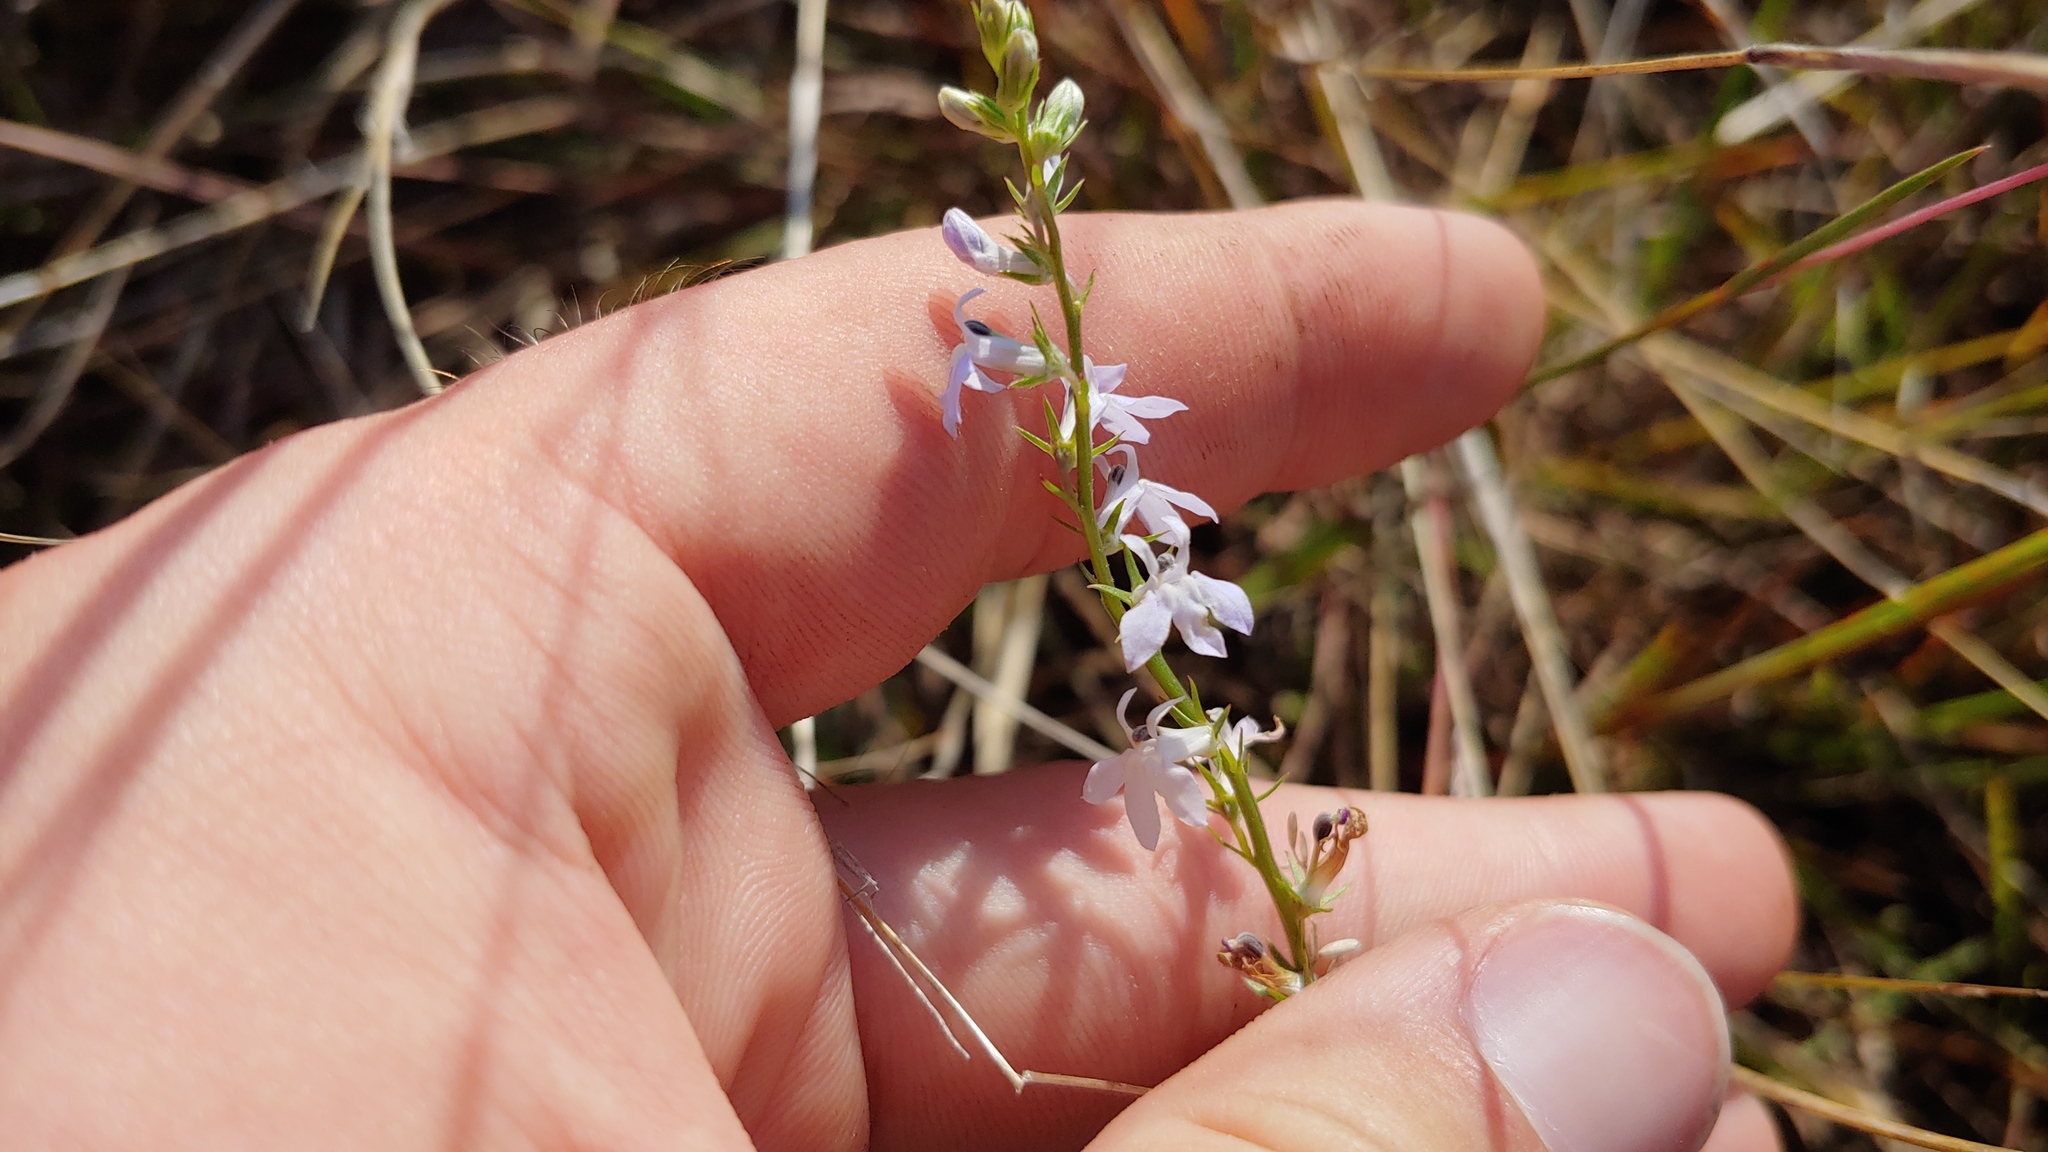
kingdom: Plantae
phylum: Tracheophyta
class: Magnoliopsida
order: Asterales
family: Campanulaceae
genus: Lobelia
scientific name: Lobelia spicata
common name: Pale-spike lobelia
